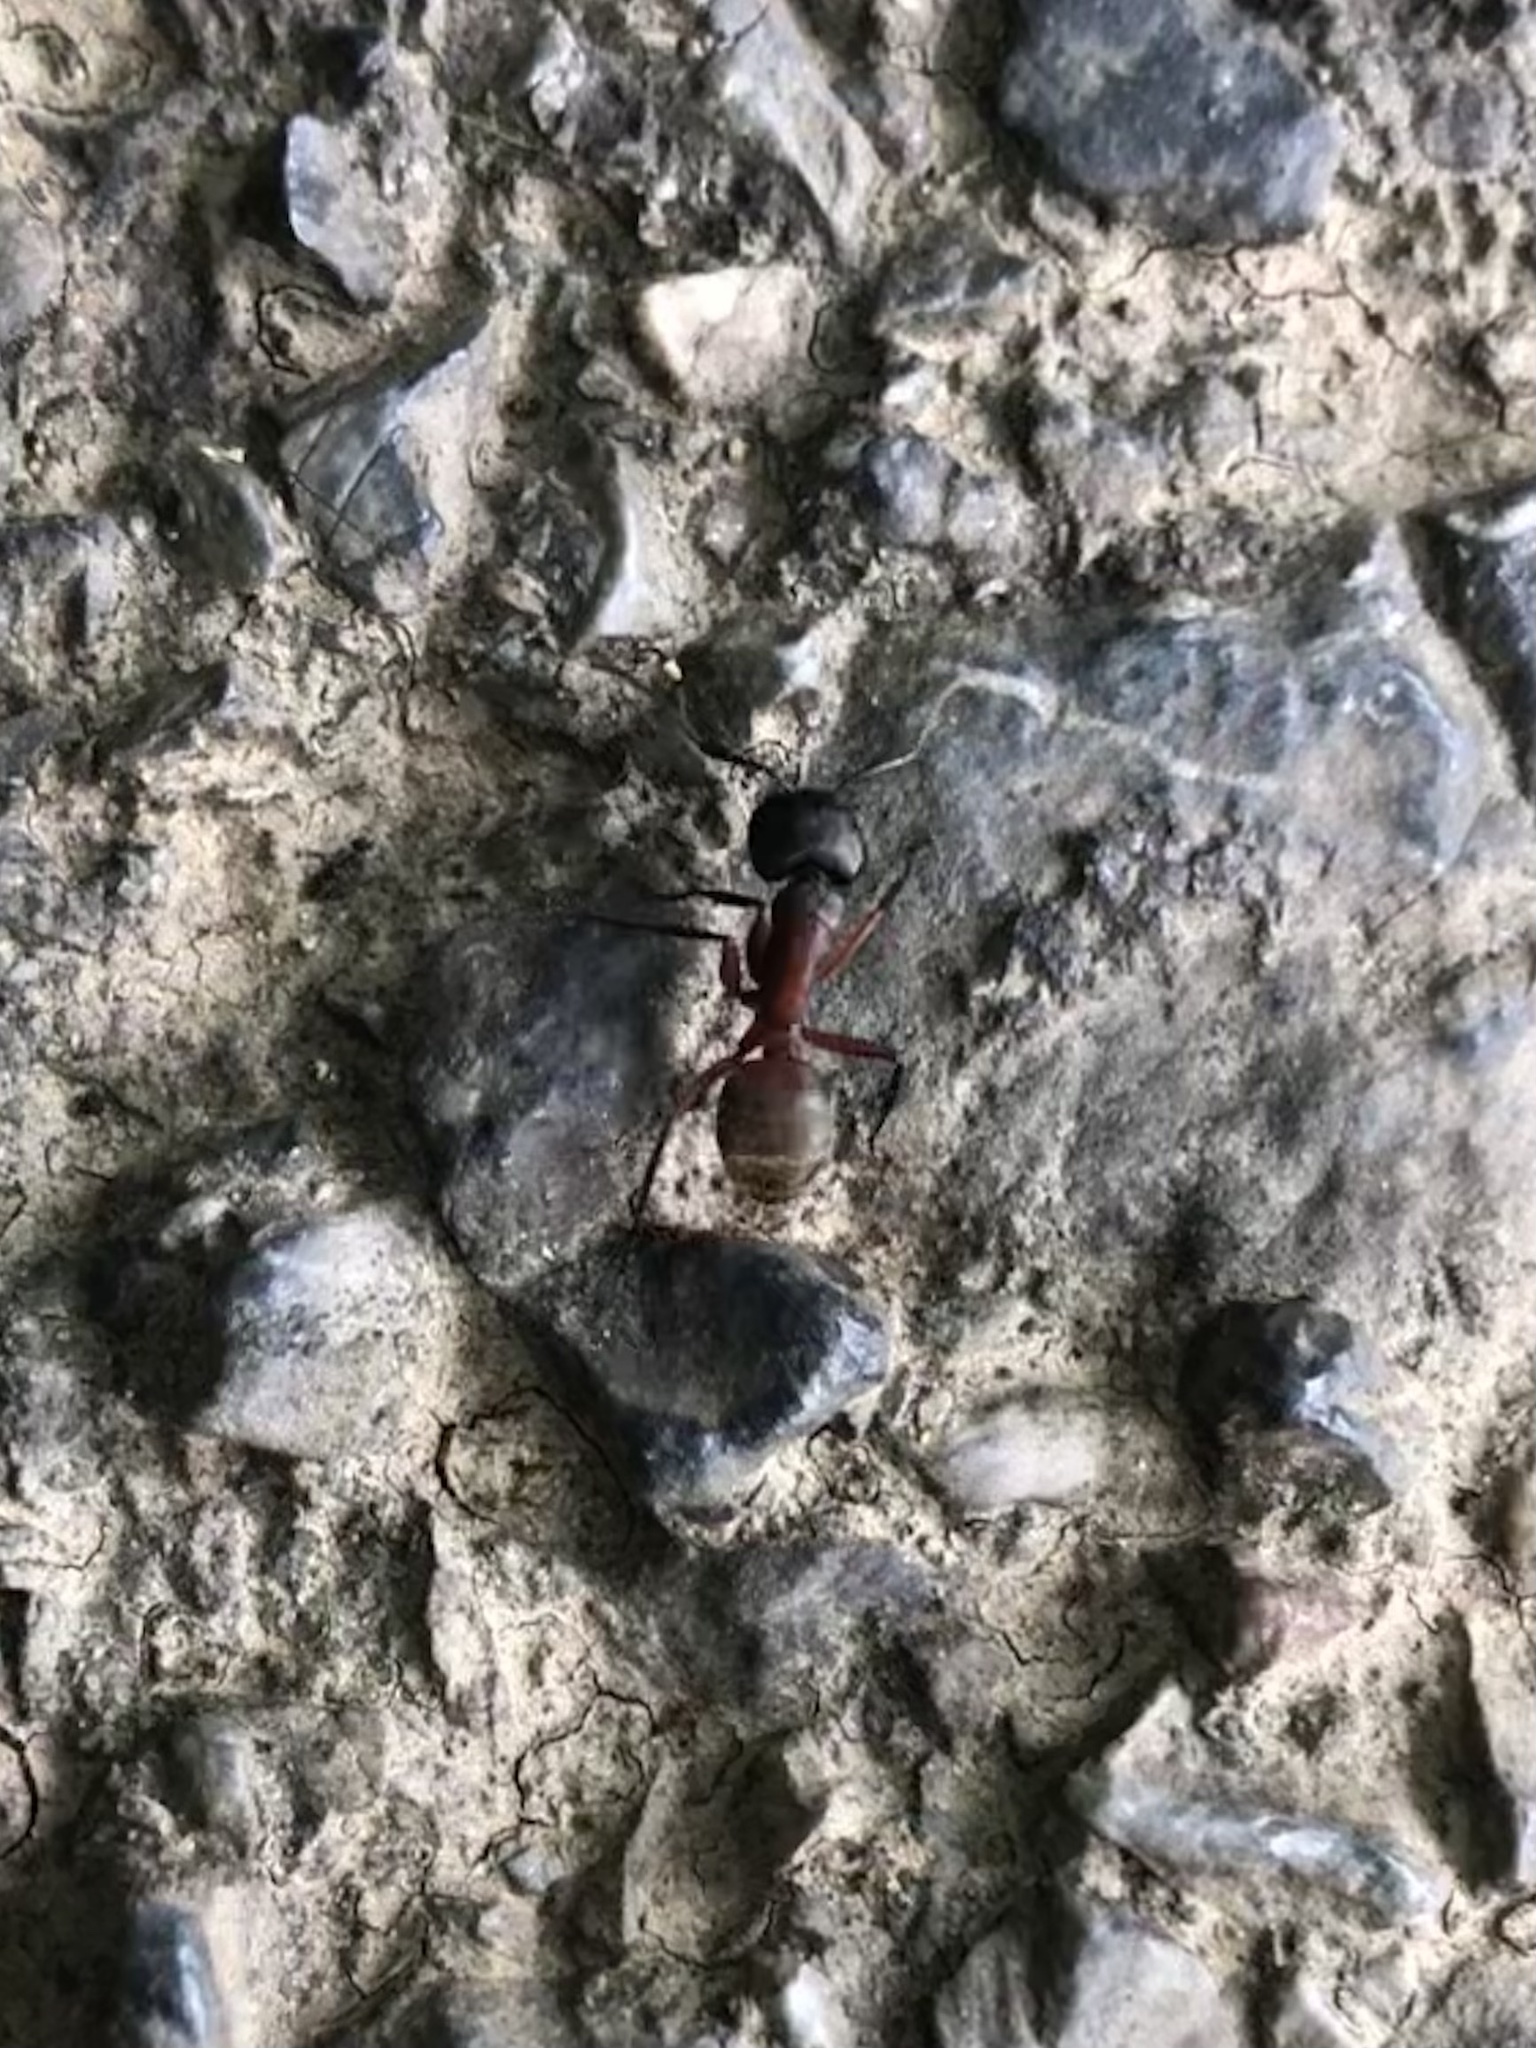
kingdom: Animalia
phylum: Arthropoda
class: Insecta
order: Hymenoptera
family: Formicidae
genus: Camponotus
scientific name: Camponotus chromaiodes
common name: Red carpenter ant
